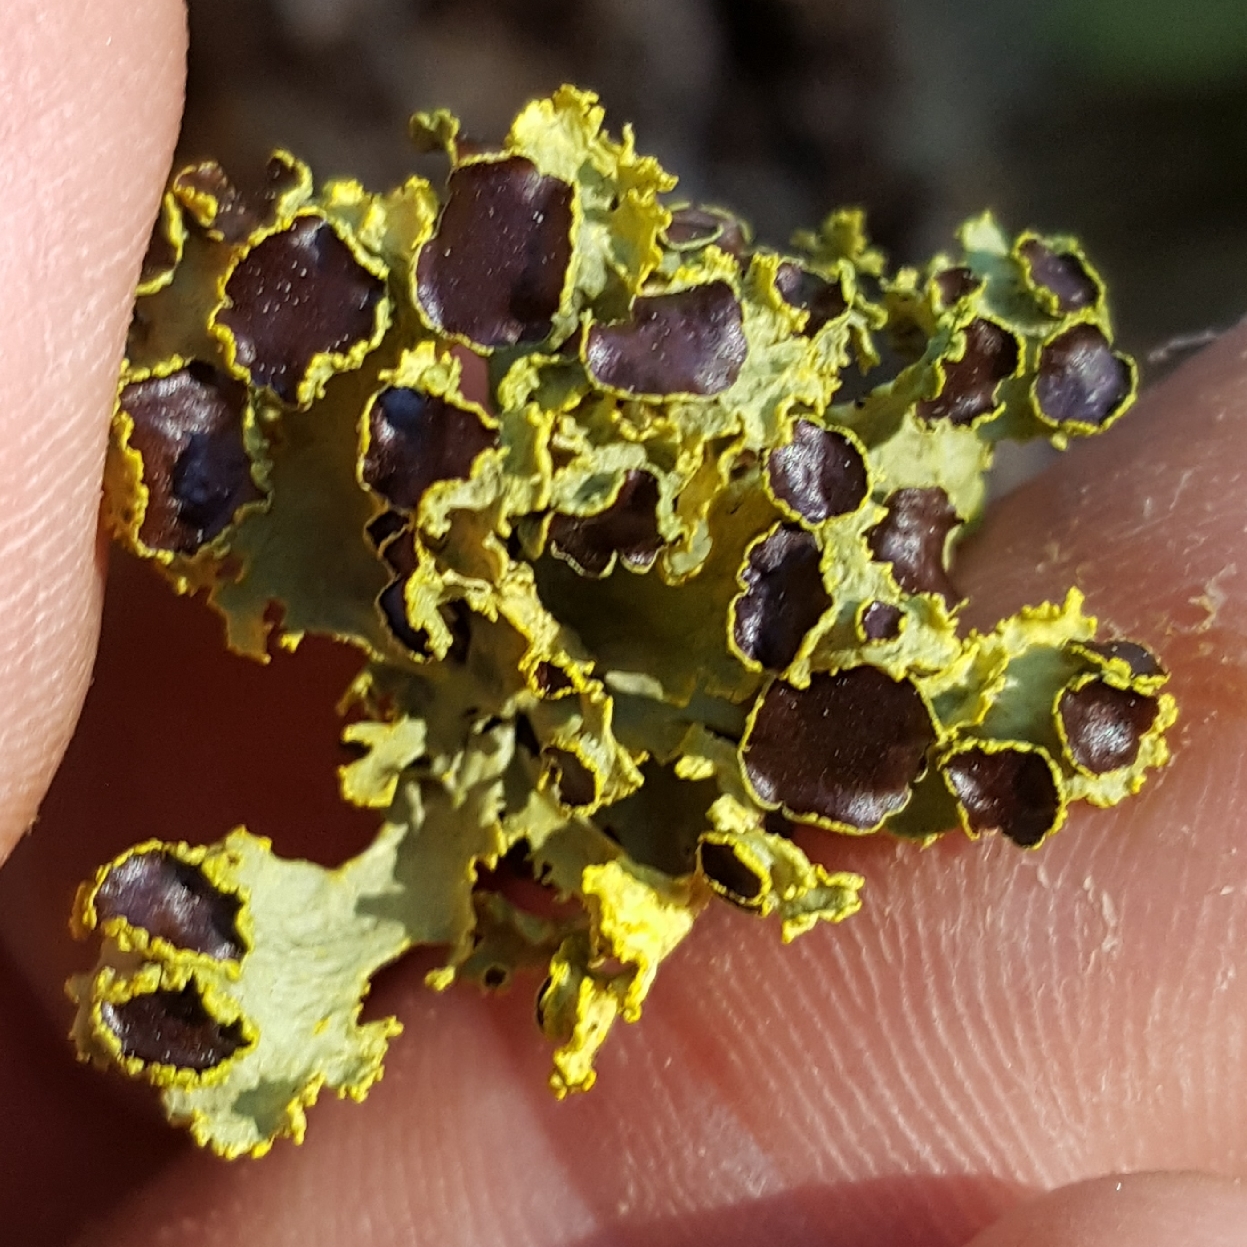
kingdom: Fungi
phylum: Ascomycota
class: Lecanoromycetes
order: Lecanorales
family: Parmeliaceae
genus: Vulpicida
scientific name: Vulpicida canadensis
